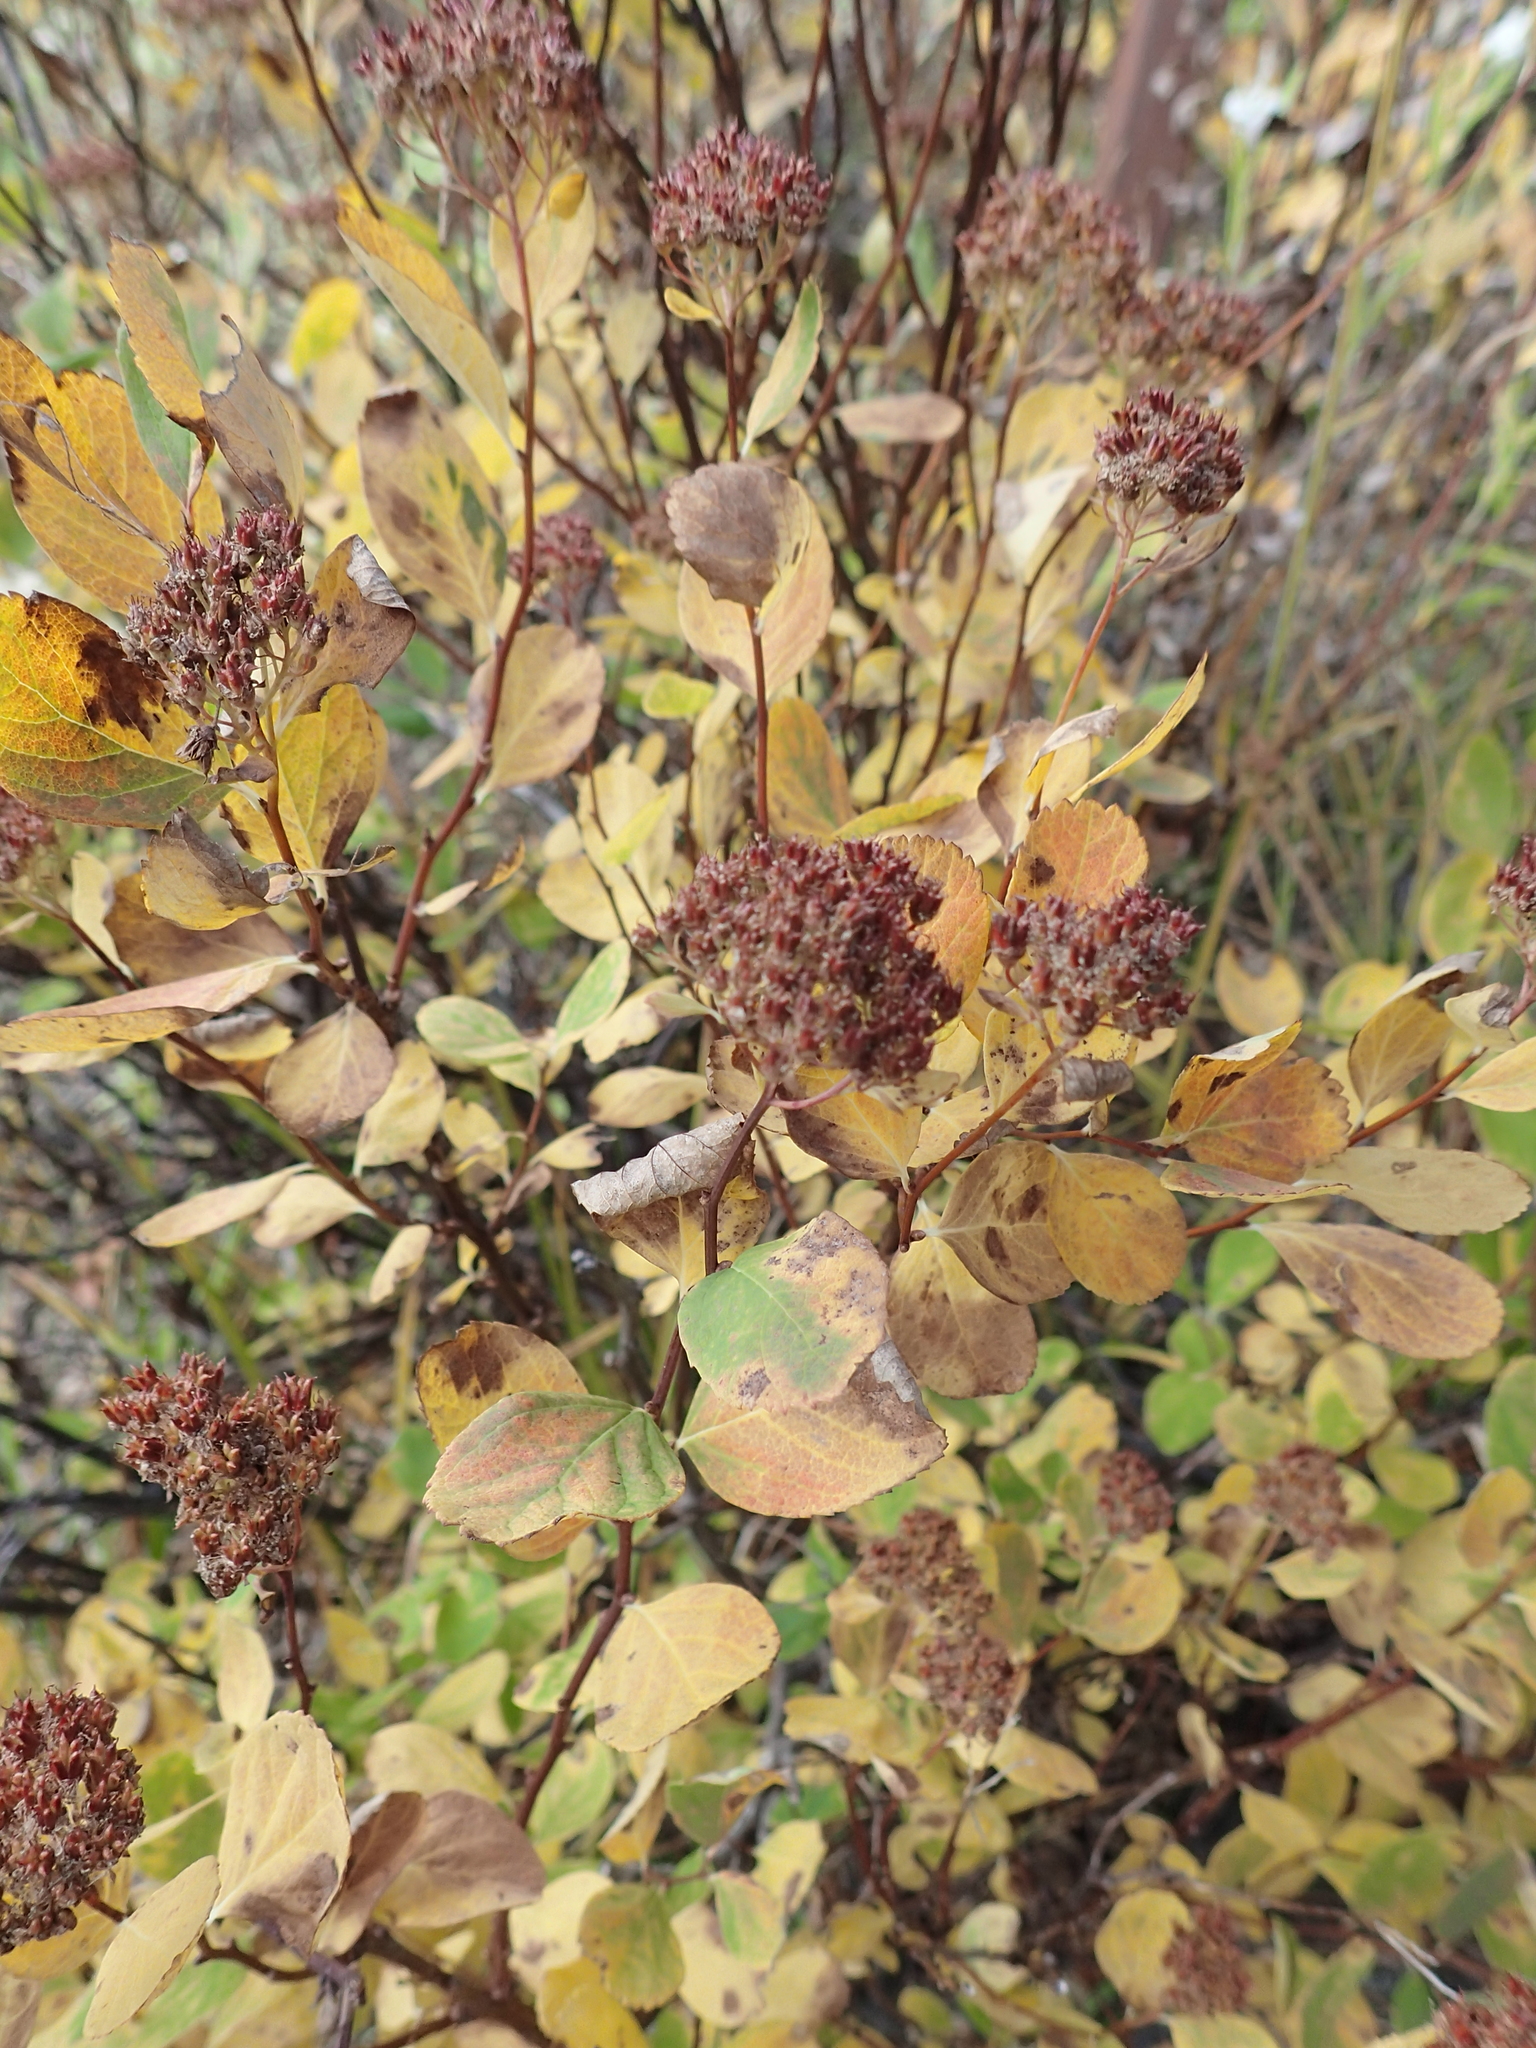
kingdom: Plantae
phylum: Tracheophyta
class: Magnoliopsida
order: Rosales
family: Rosaceae
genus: Spiraea
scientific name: Spiraea splendens
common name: Subalpine meadowsweet
